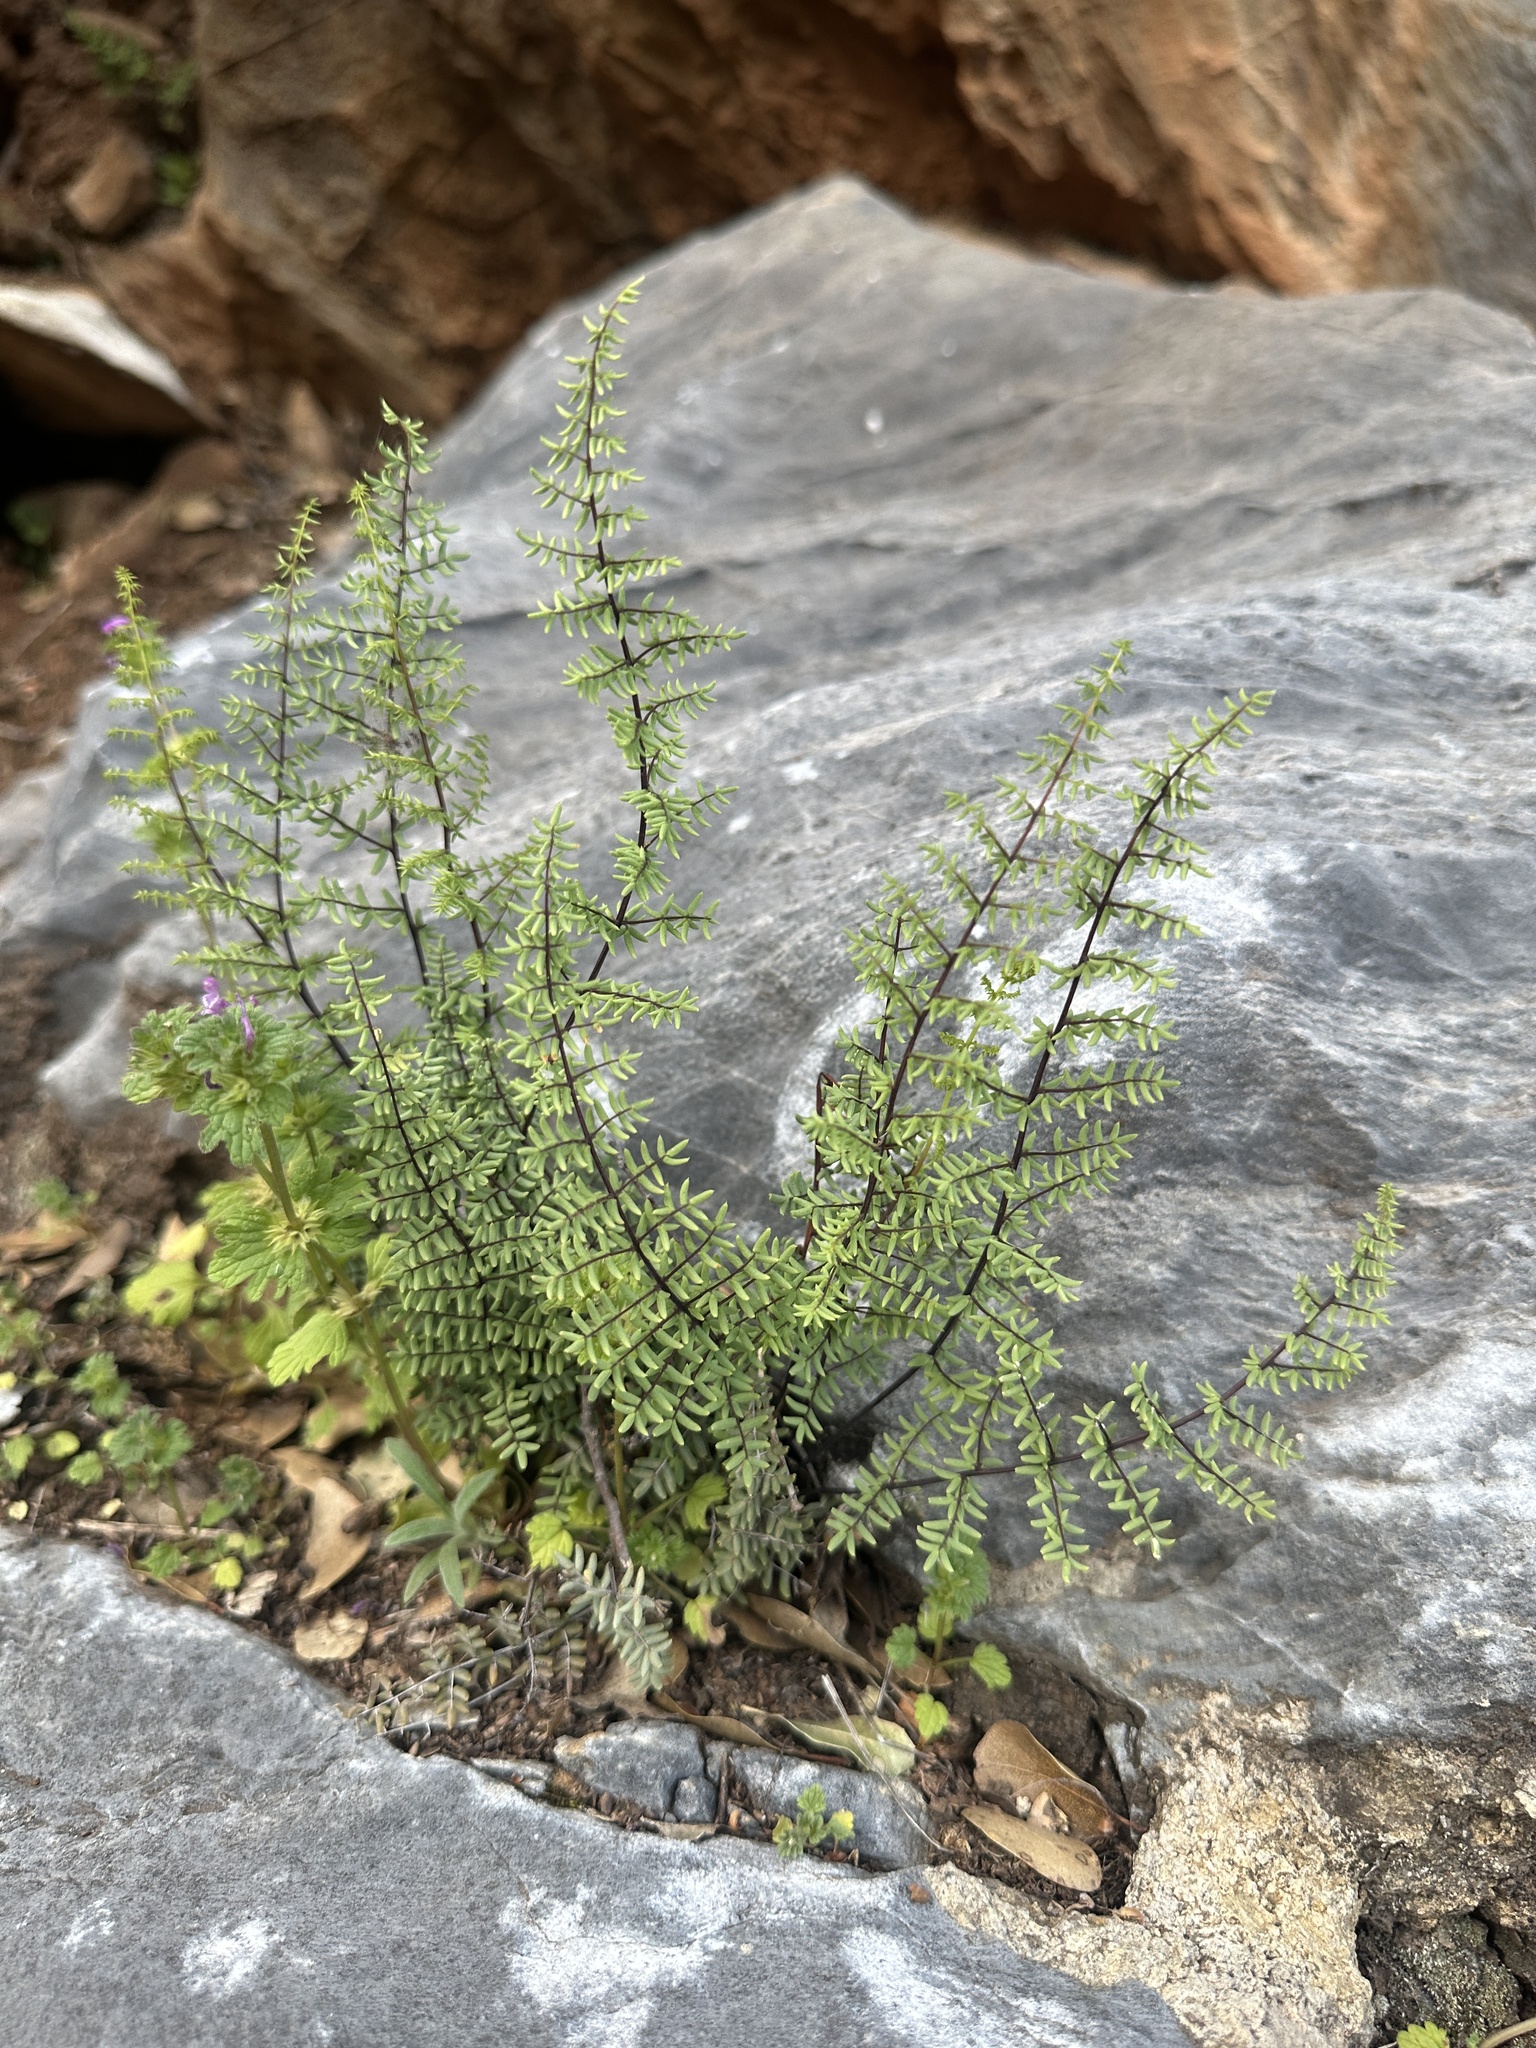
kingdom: Plantae
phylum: Tracheophyta
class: Polypodiopsida
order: Polypodiales
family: Pteridaceae
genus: Pellaea
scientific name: Pellaea mucronata
